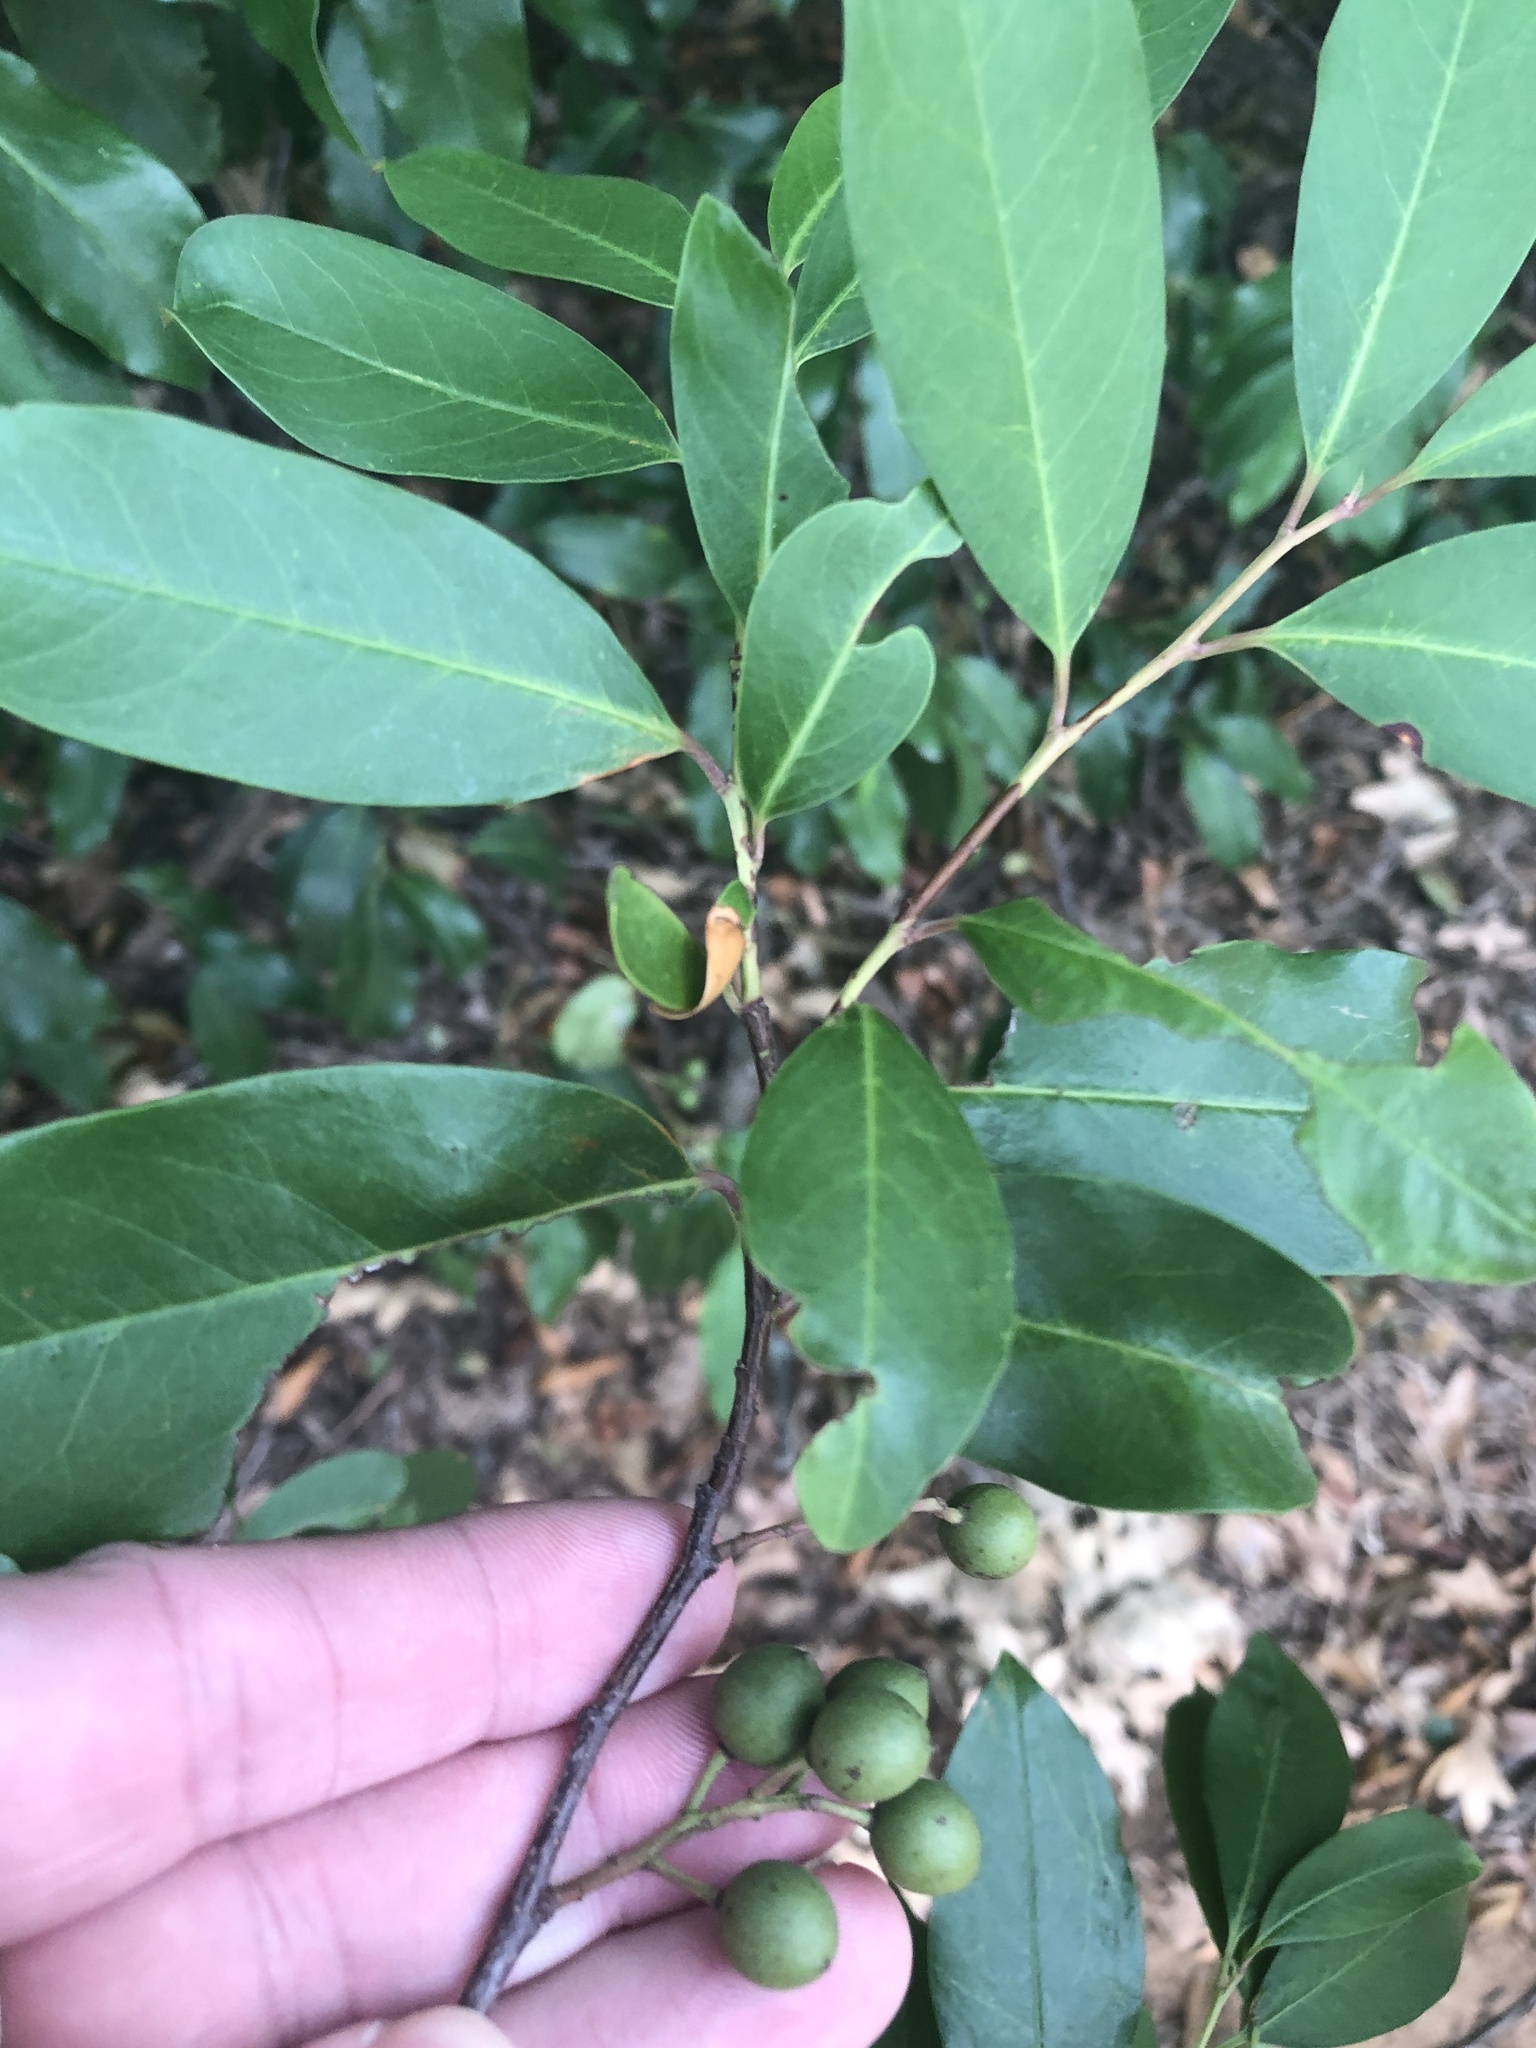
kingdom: Plantae
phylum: Tracheophyta
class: Magnoliopsida
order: Rosales
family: Rosaceae
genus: Prunus
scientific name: Prunus caroliniana
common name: Carolina laurel cherry
